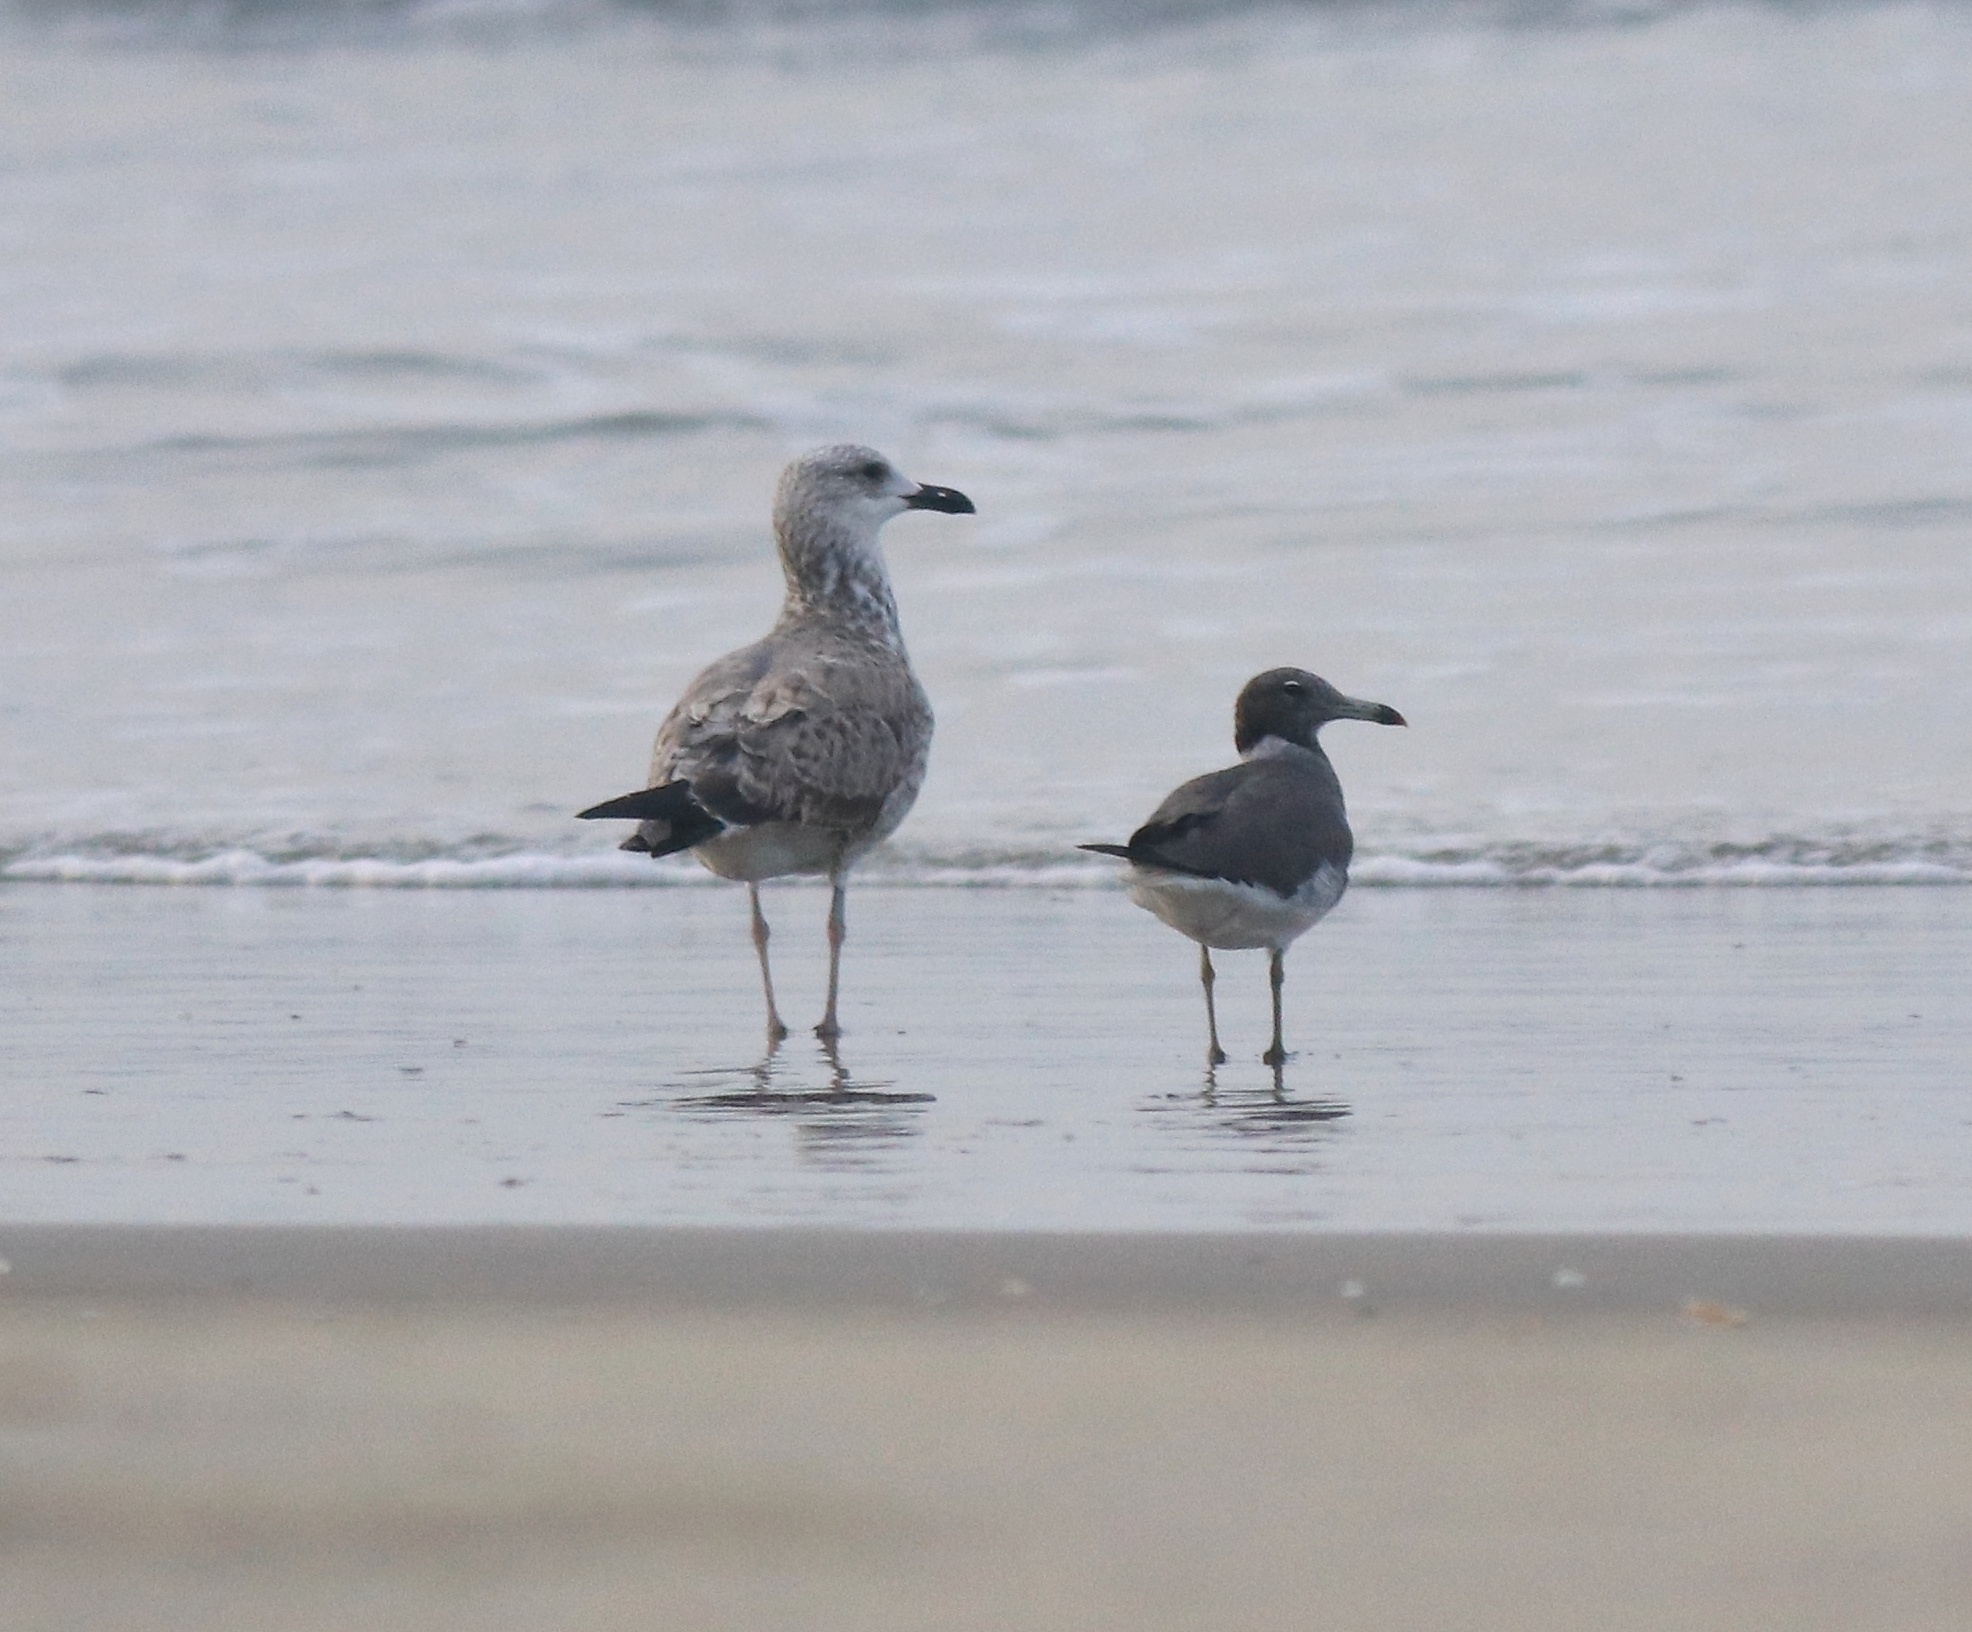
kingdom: Animalia
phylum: Chordata
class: Aves
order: Charadriiformes
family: Laridae
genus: Larus
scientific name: Larus fuscus
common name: Lesser black-backed gull
